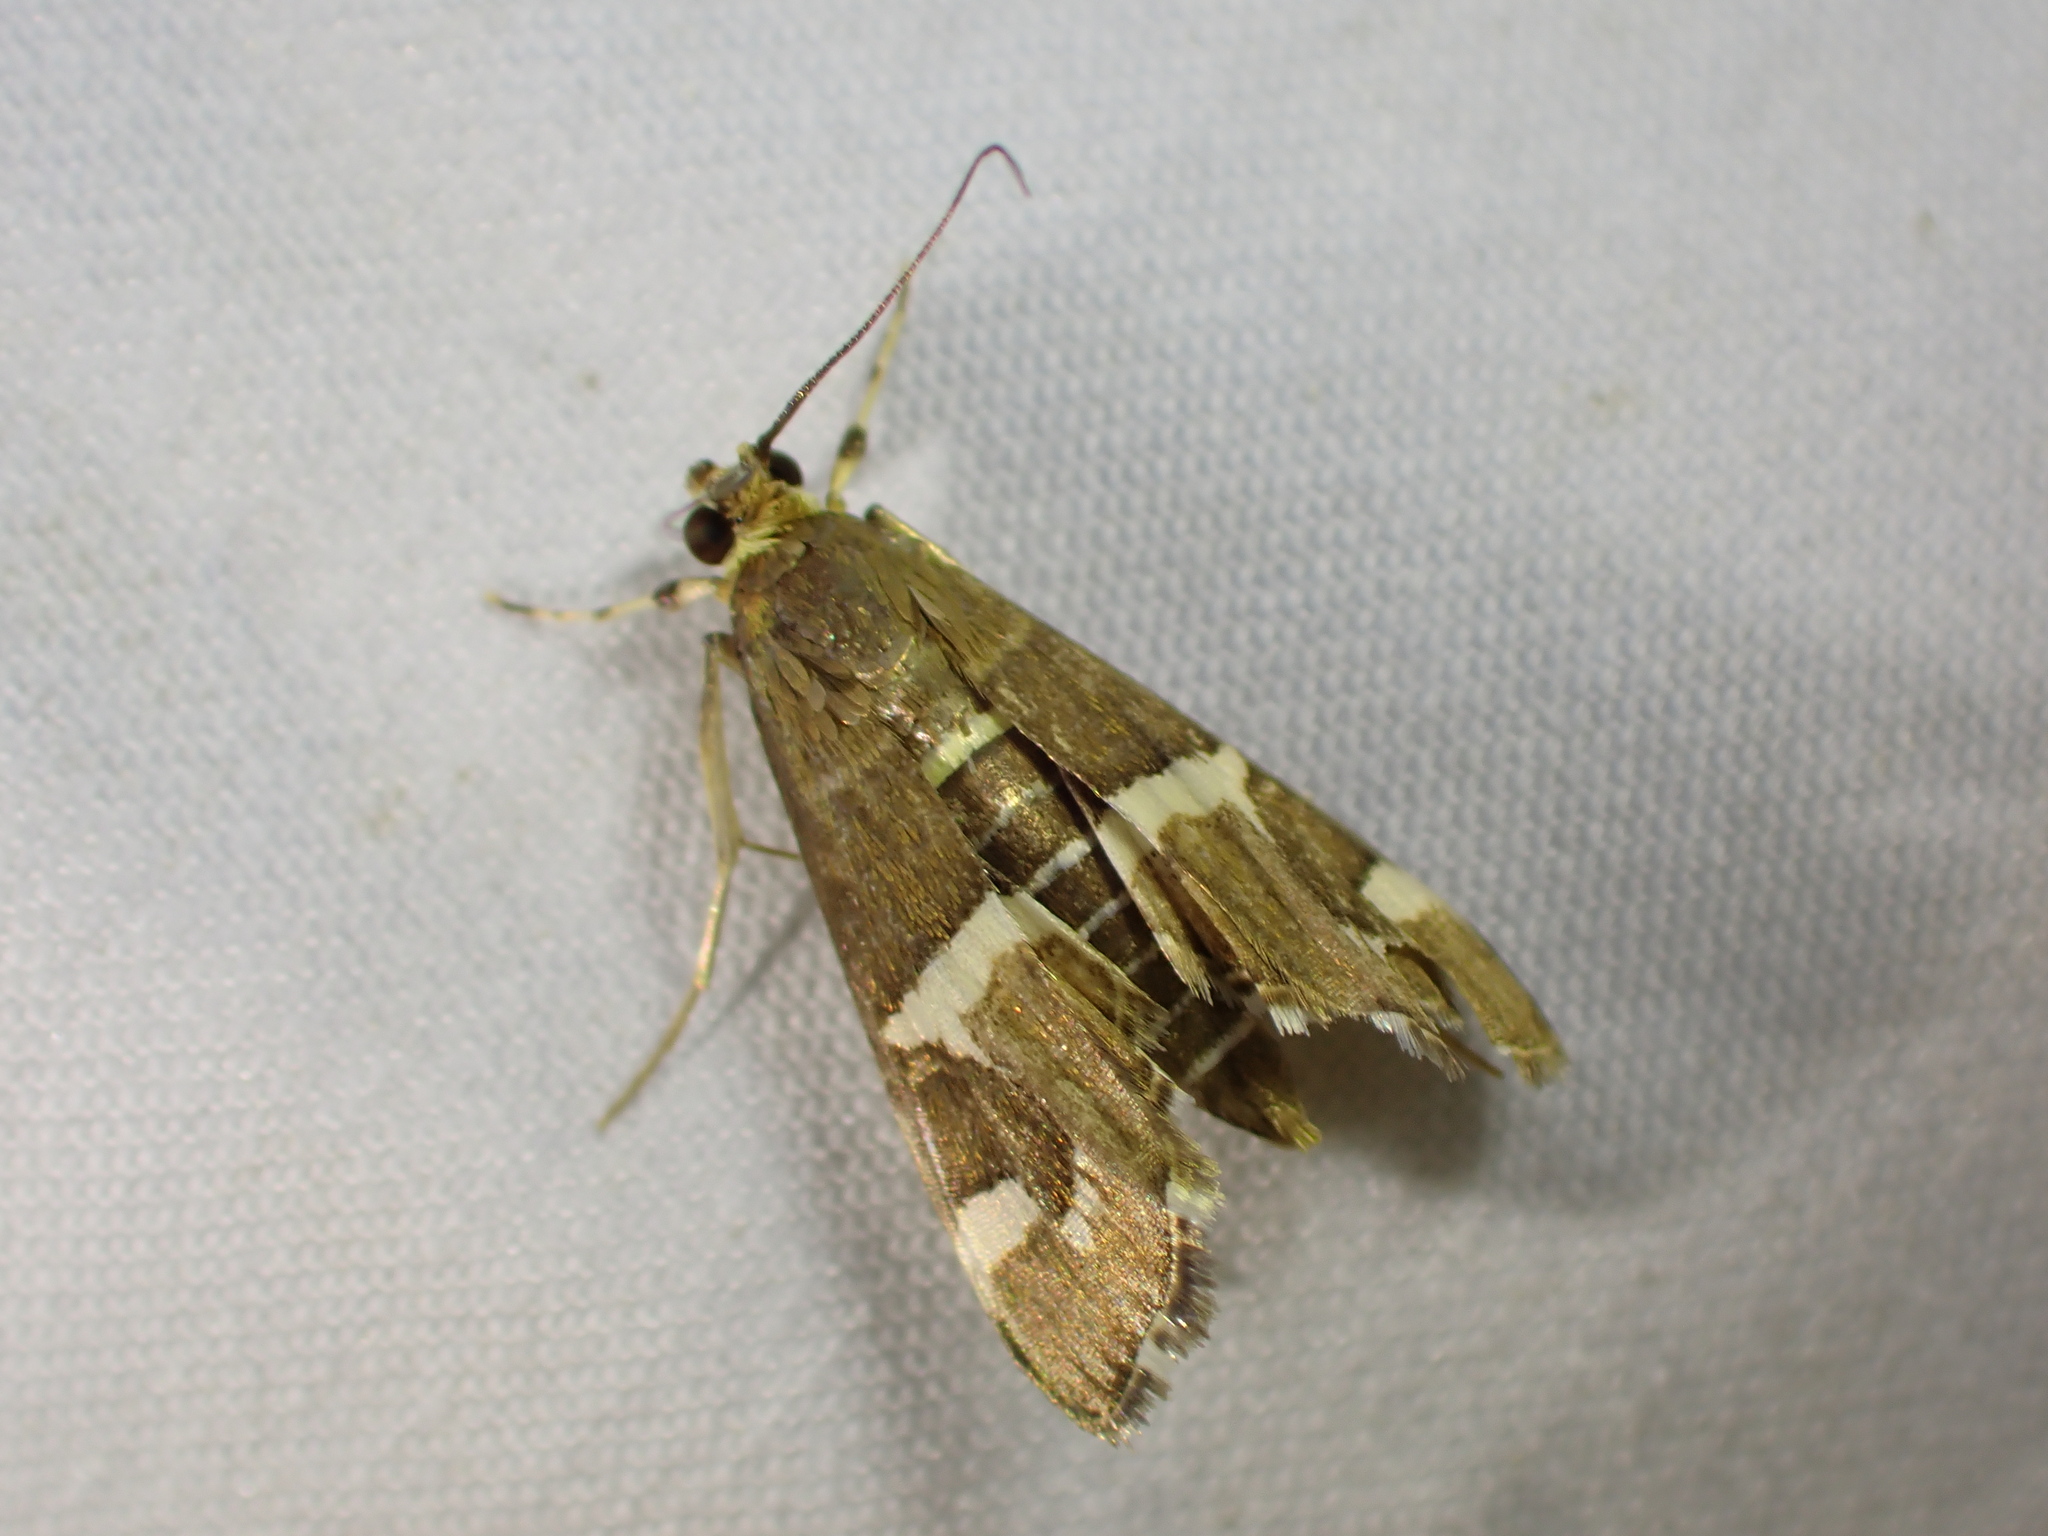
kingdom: Animalia
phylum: Arthropoda
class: Insecta
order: Lepidoptera
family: Crambidae
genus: Spoladea
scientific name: Spoladea recurvalis
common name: Beet webworm moth
